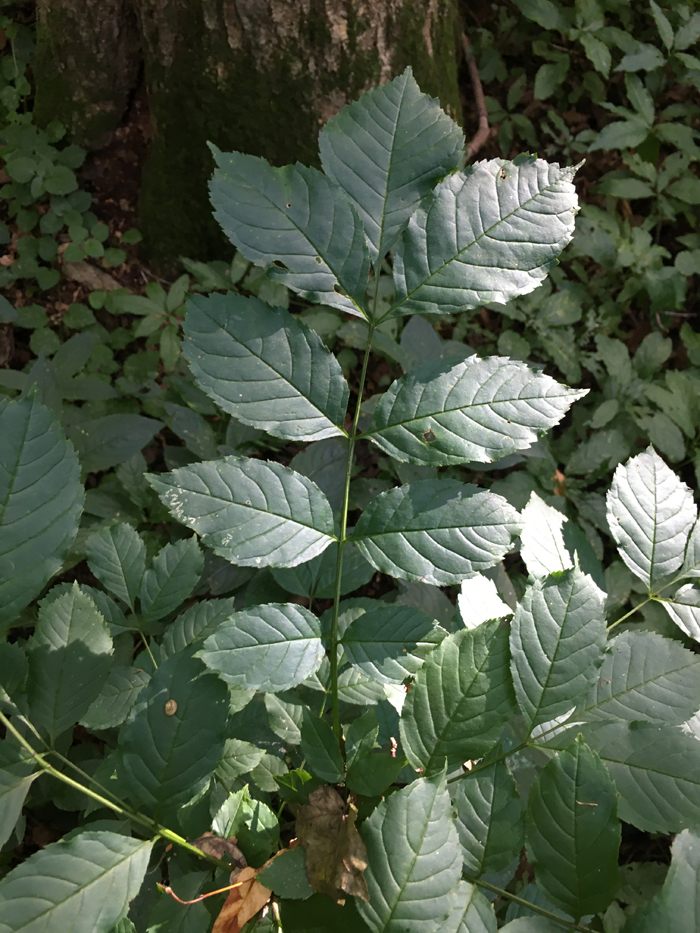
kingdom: Plantae
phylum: Tracheophyta
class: Magnoliopsida
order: Lamiales
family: Oleaceae
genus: Fraxinus
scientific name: Fraxinus excelsior
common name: European ash
